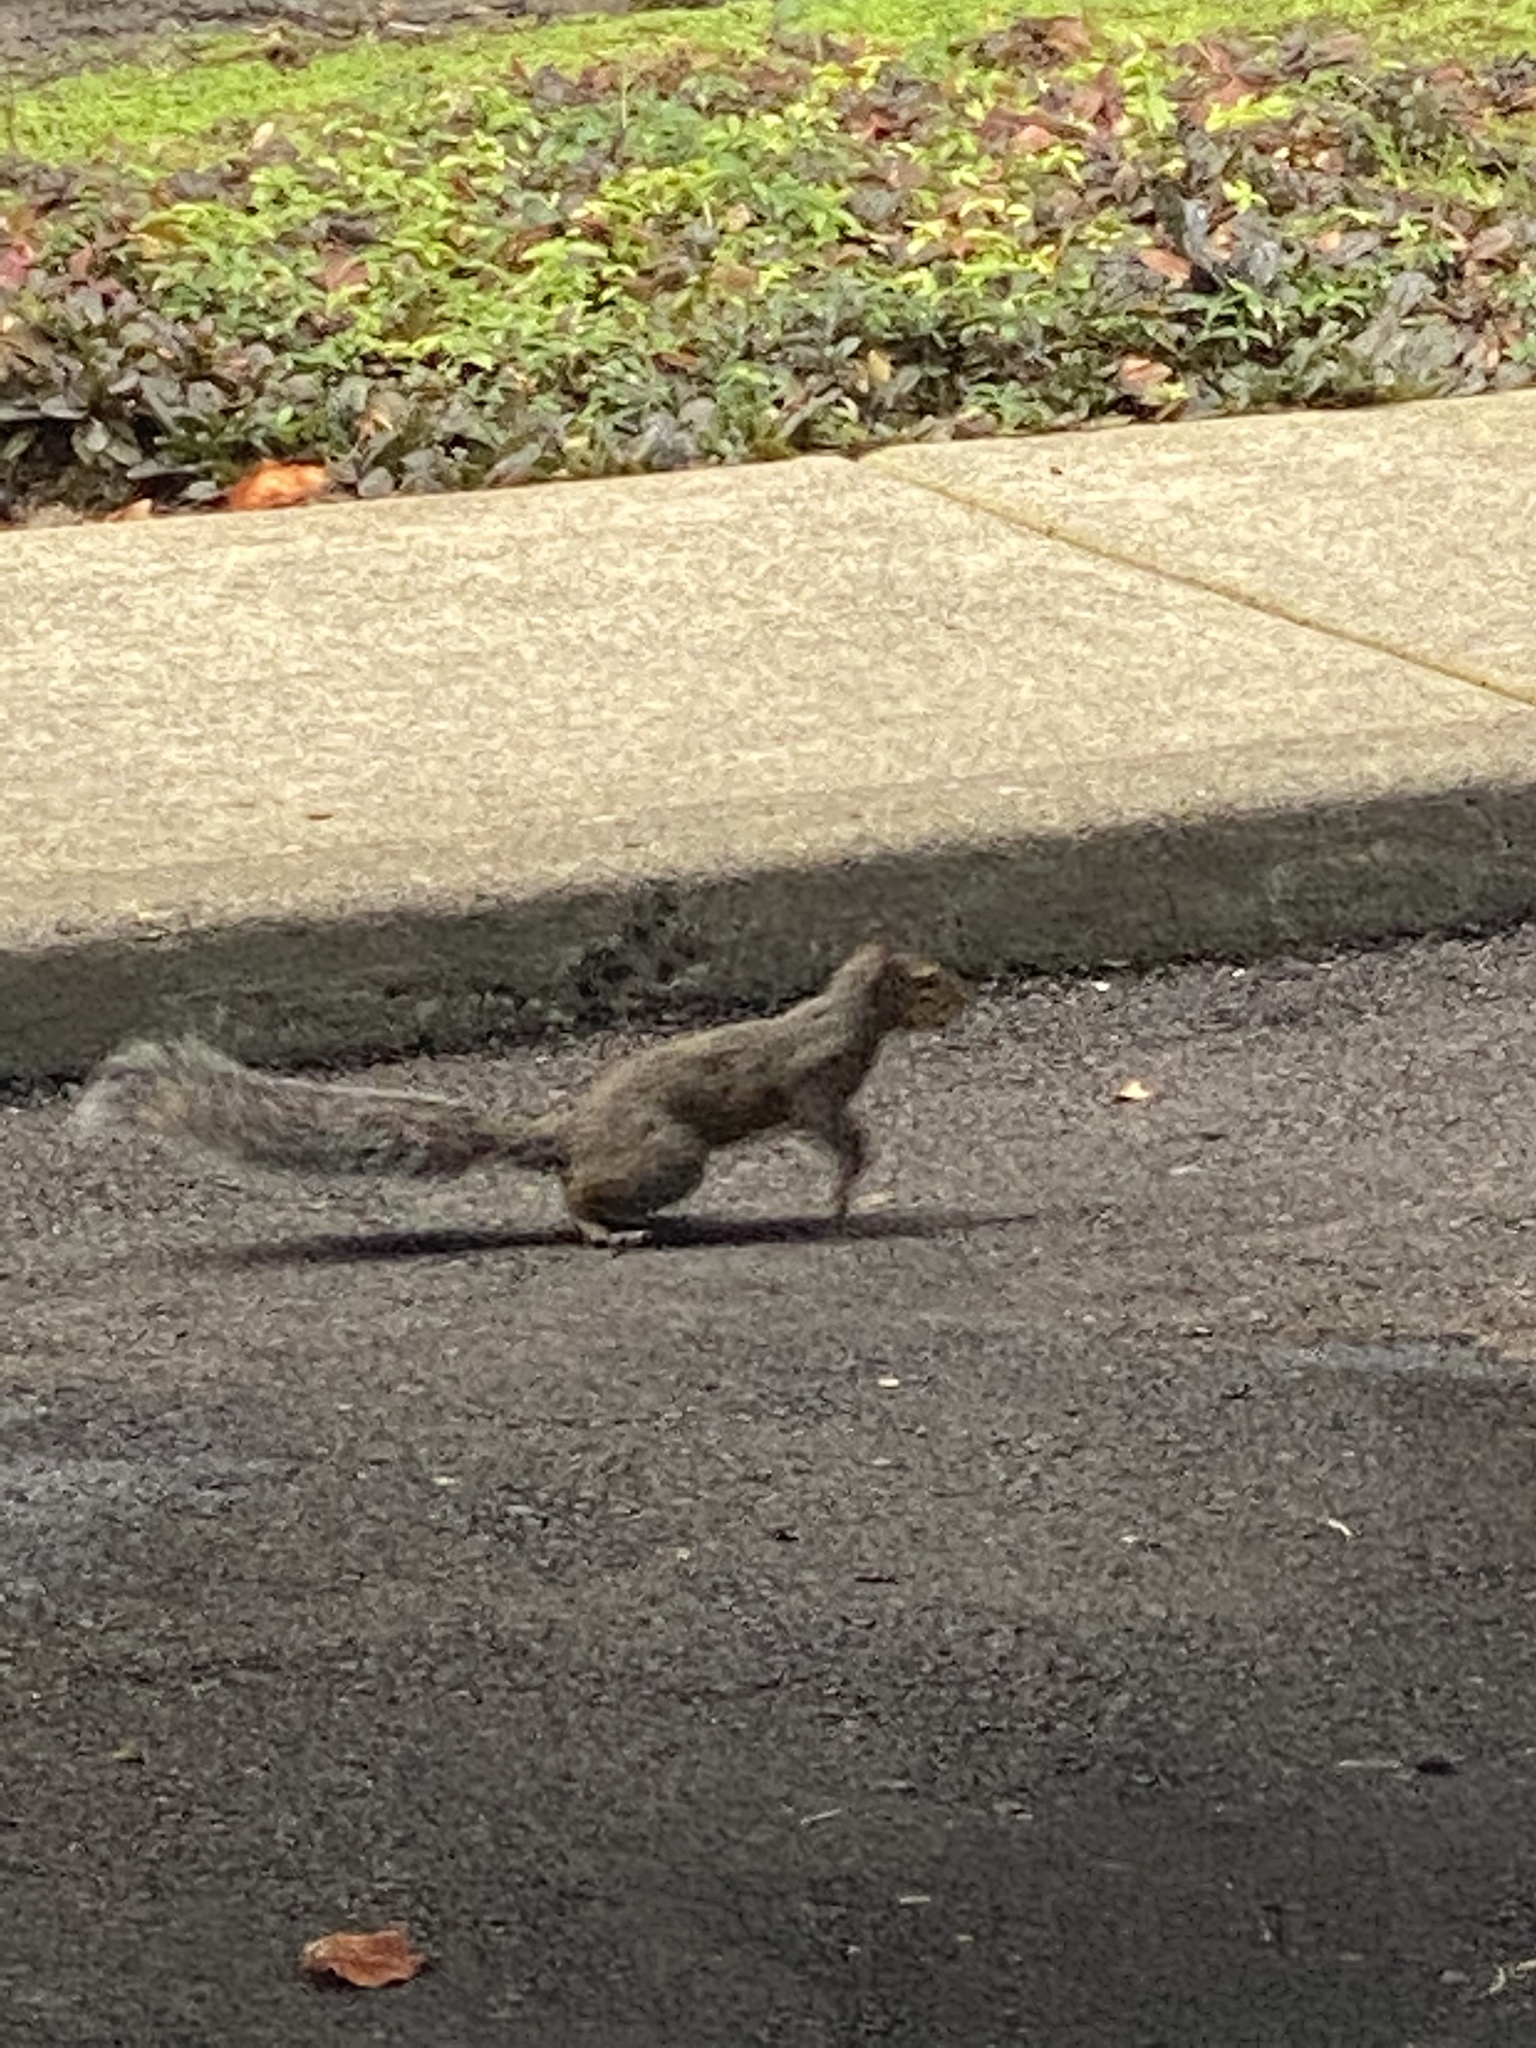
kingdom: Animalia
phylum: Chordata
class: Mammalia
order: Rodentia
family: Sciuridae
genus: Sciurus
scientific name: Sciurus carolinensis
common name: Eastern gray squirrel
